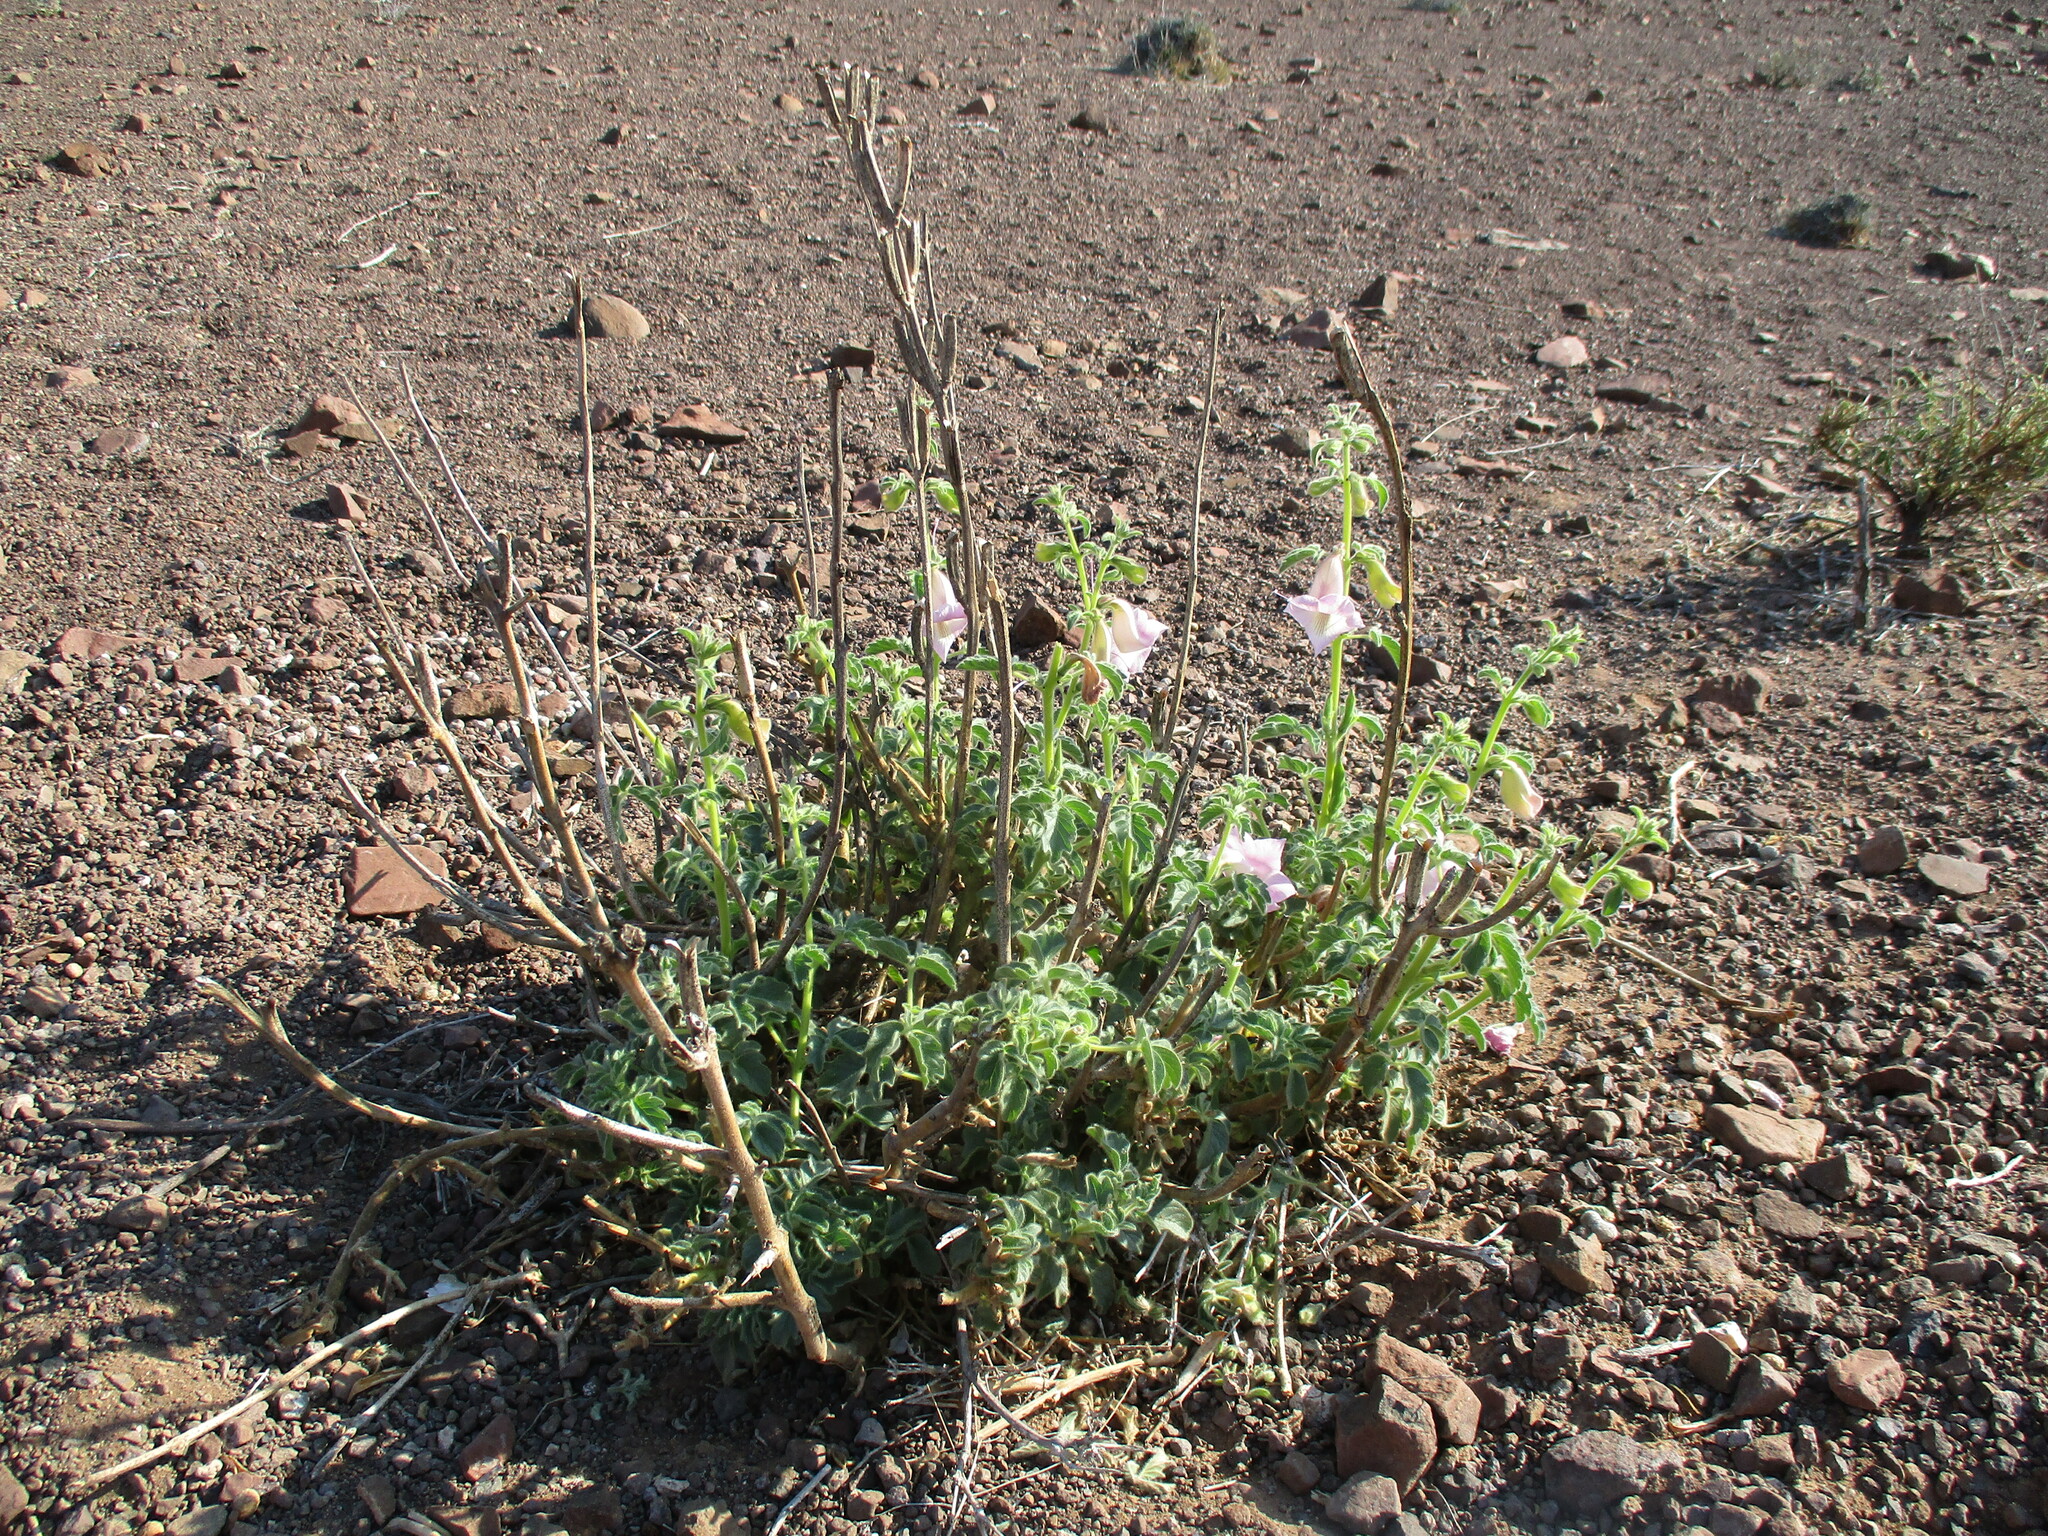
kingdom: Plantae
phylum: Tracheophyta
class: Magnoliopsida
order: Lamiales
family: Pedaliaceae
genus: Sesamum
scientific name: Sesamum marlothii
